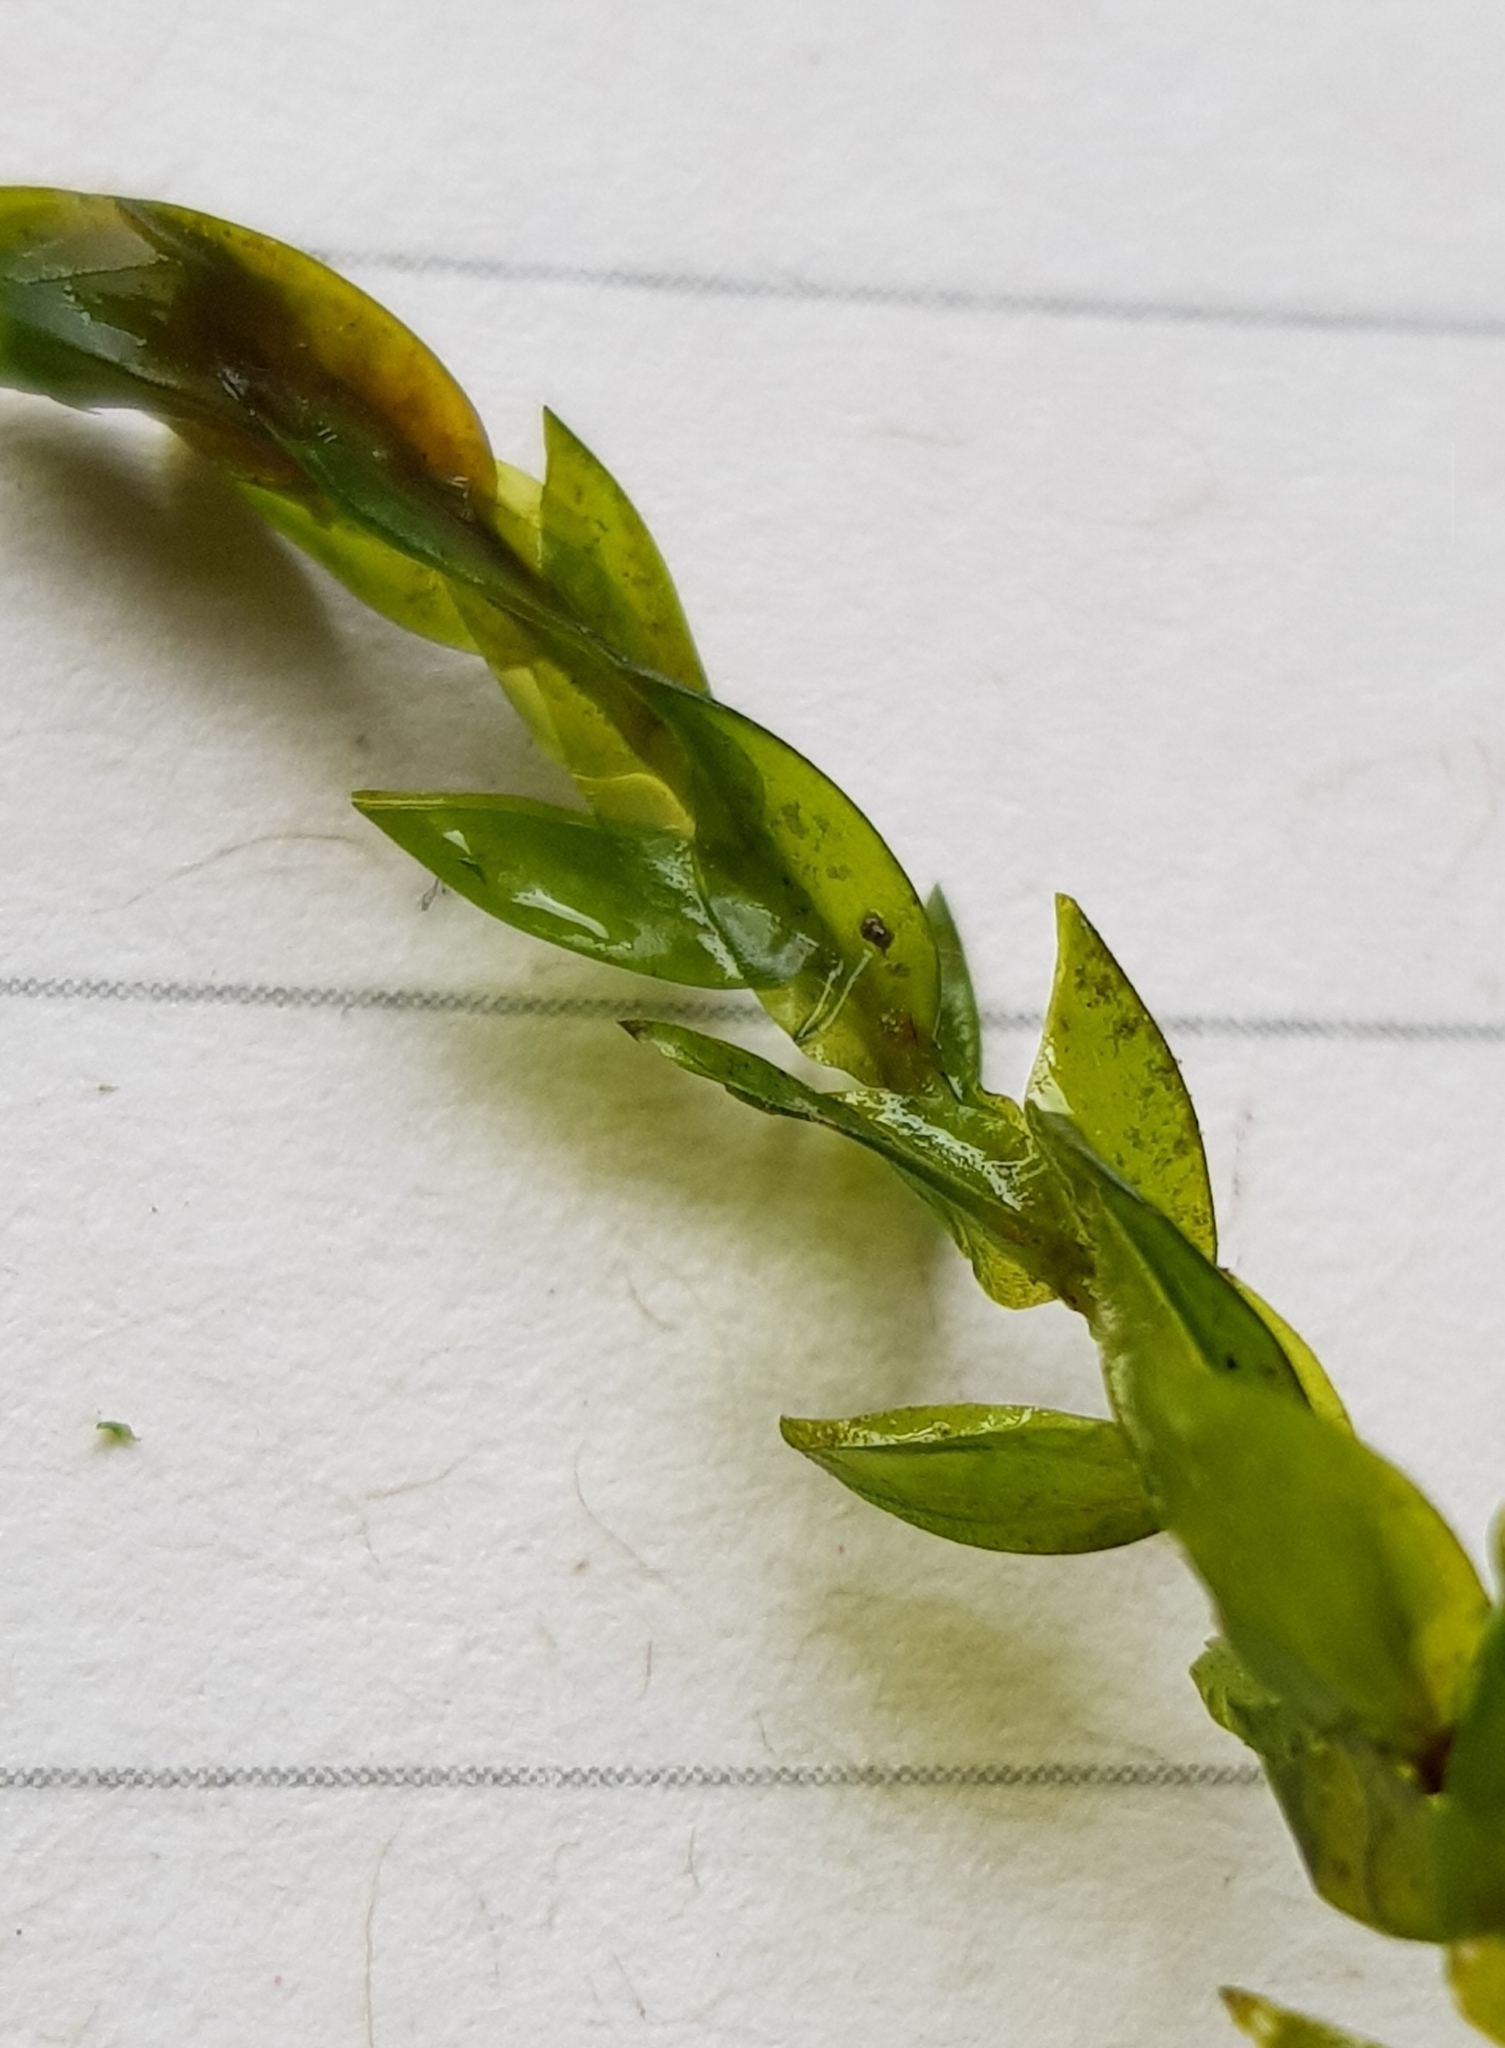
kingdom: Plantae
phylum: Bryophyta
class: Bryopsida
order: Hypnales
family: Fontinalaceae
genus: Fontinalis
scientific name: Fontinalis antipyretica
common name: Greater water-moss
